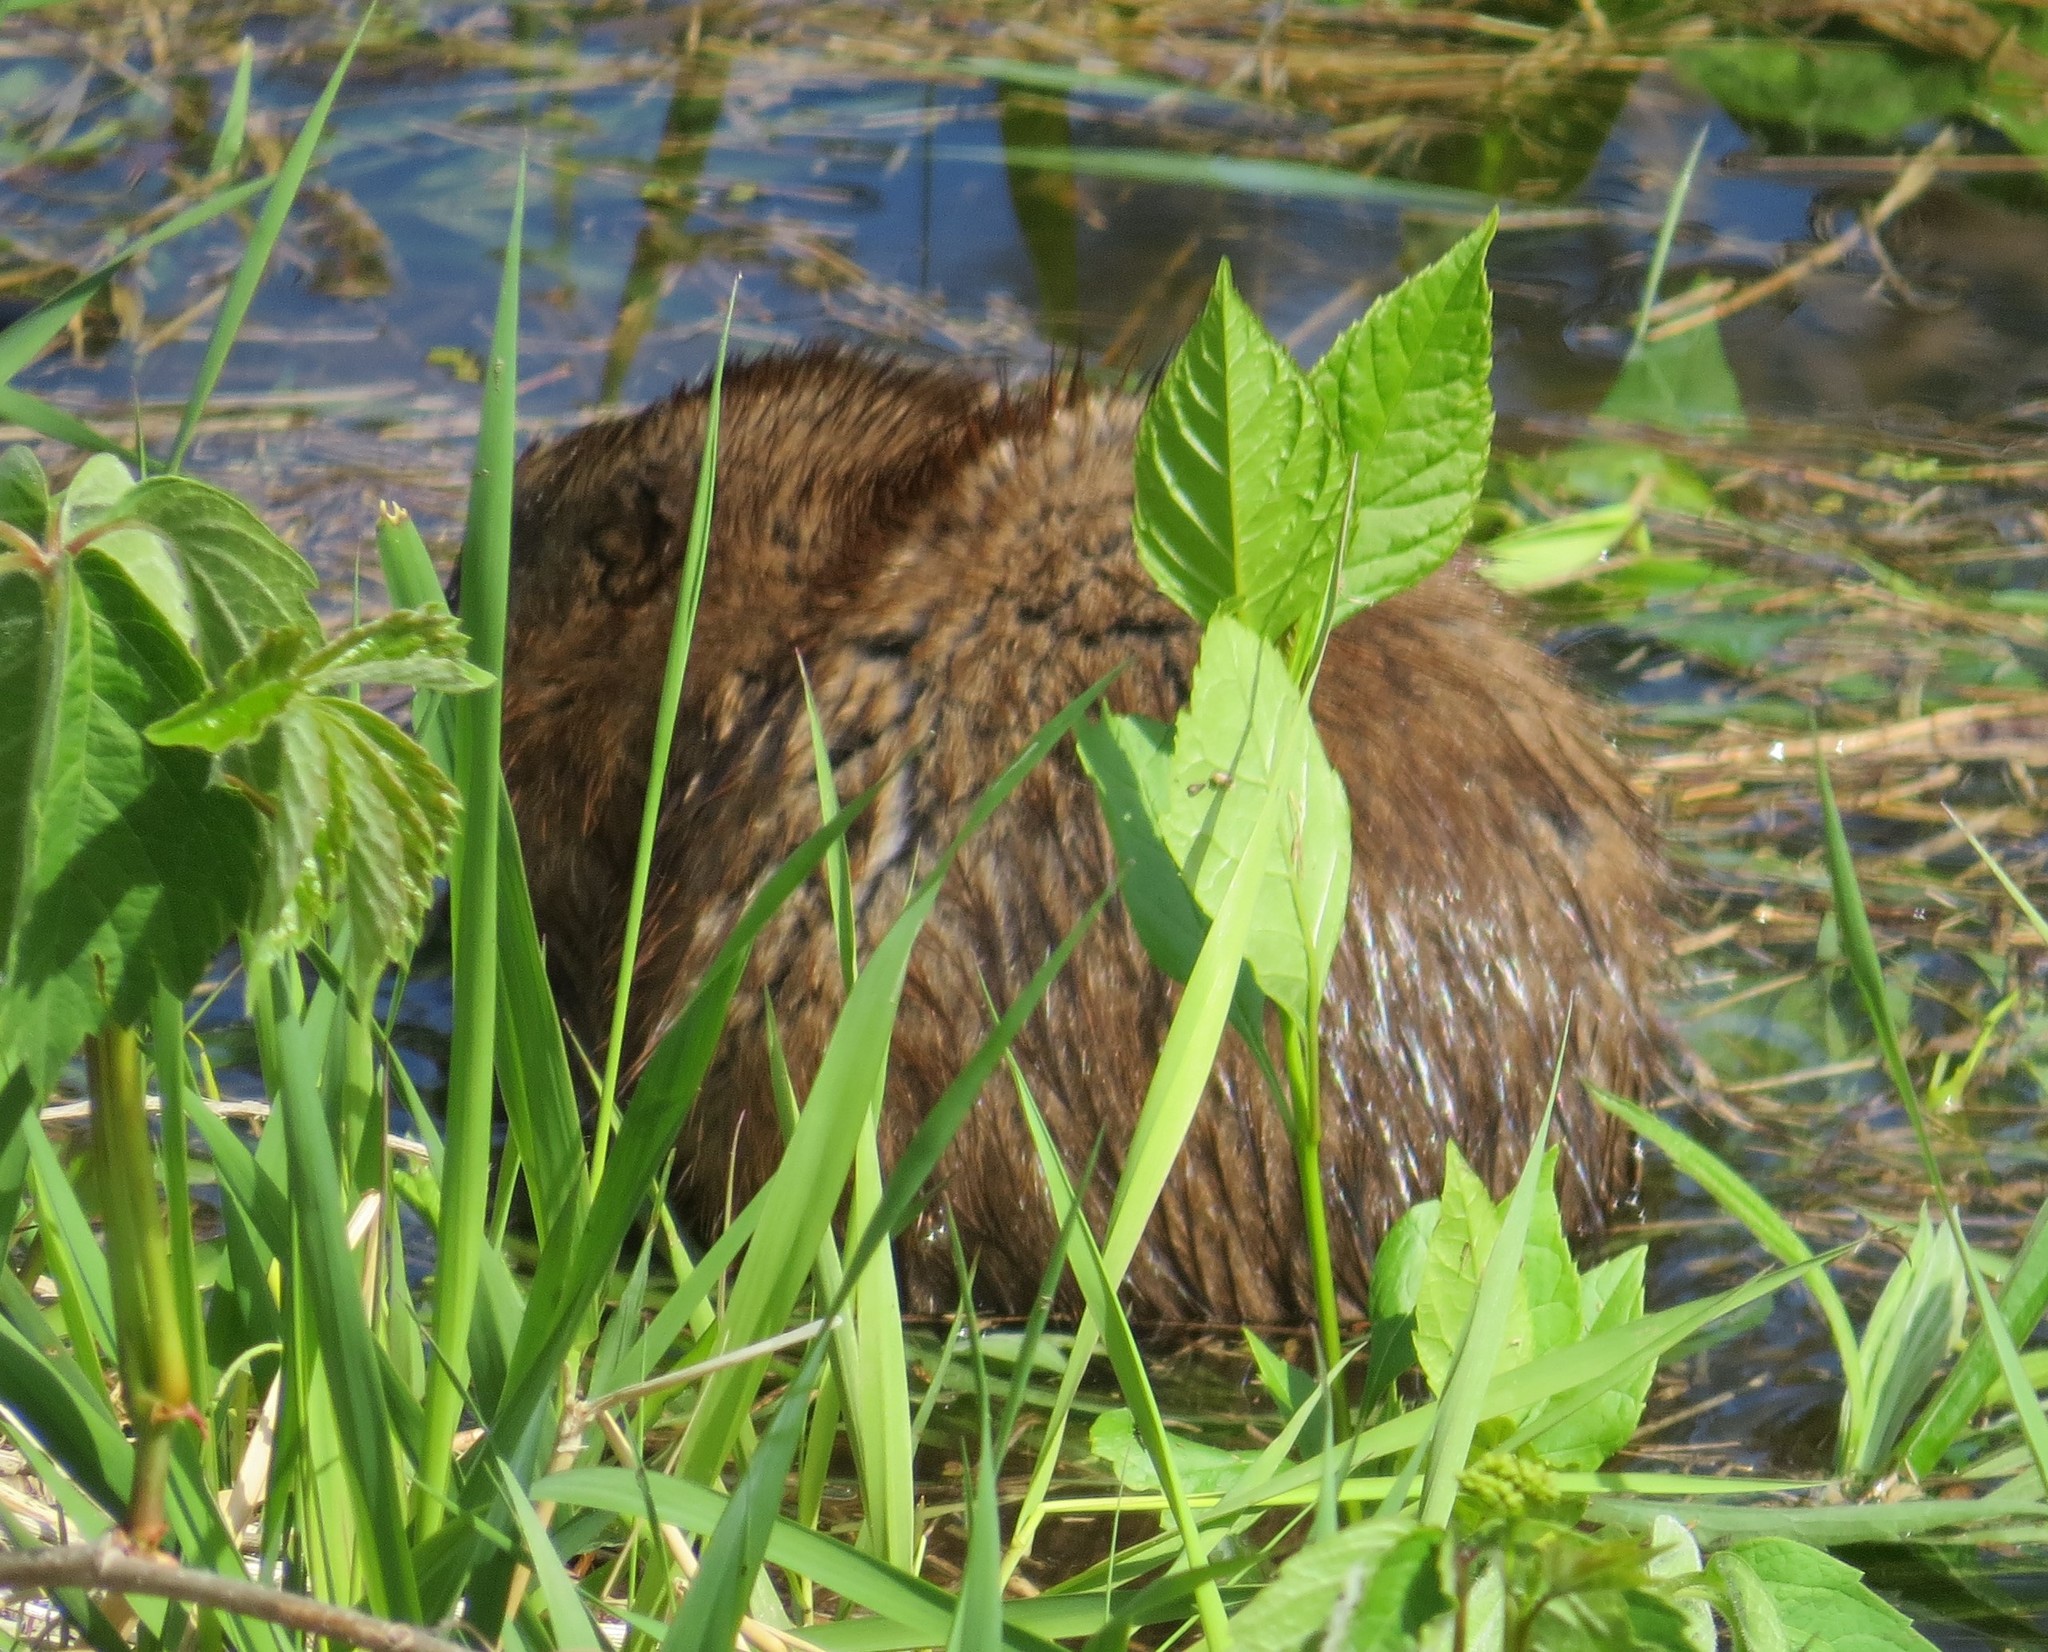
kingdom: Animalia
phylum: Chordata
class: Mammalia
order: Rodentia
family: Cricetidae
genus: Ondatra
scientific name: Ondatra zibethicus
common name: Muskrat
